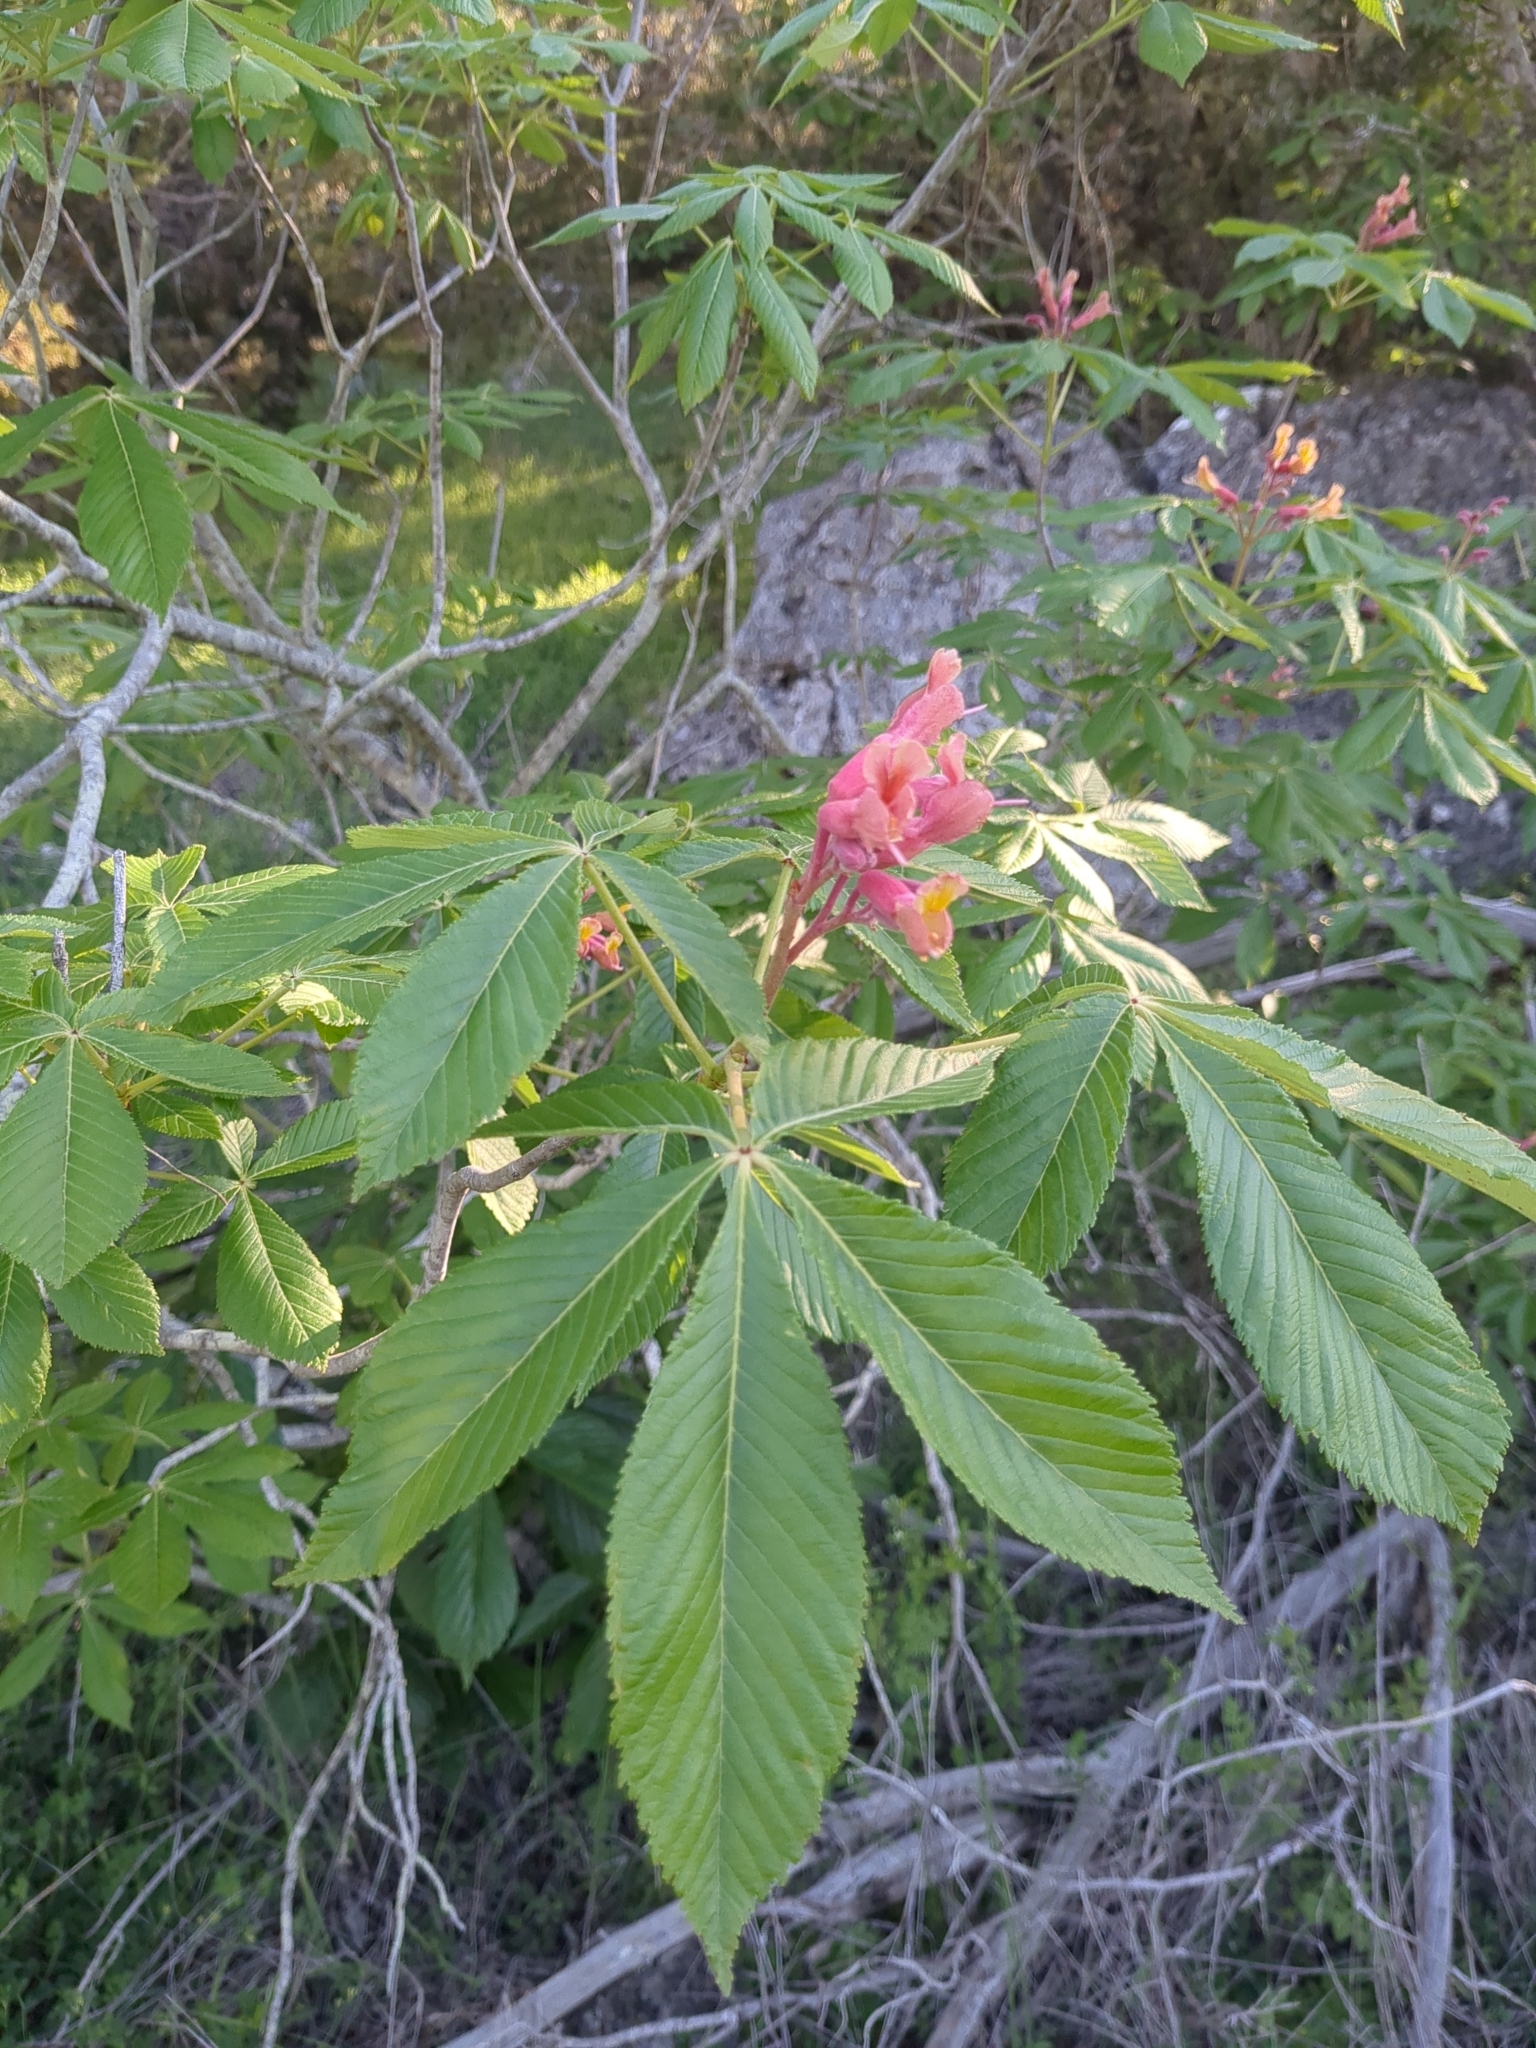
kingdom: Plantae
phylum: Tracheophyta
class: Magnoliopsida
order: Sapindales
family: Sapindaceae
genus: Aesculus
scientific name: Aesculus pavia
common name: Red buckeye
